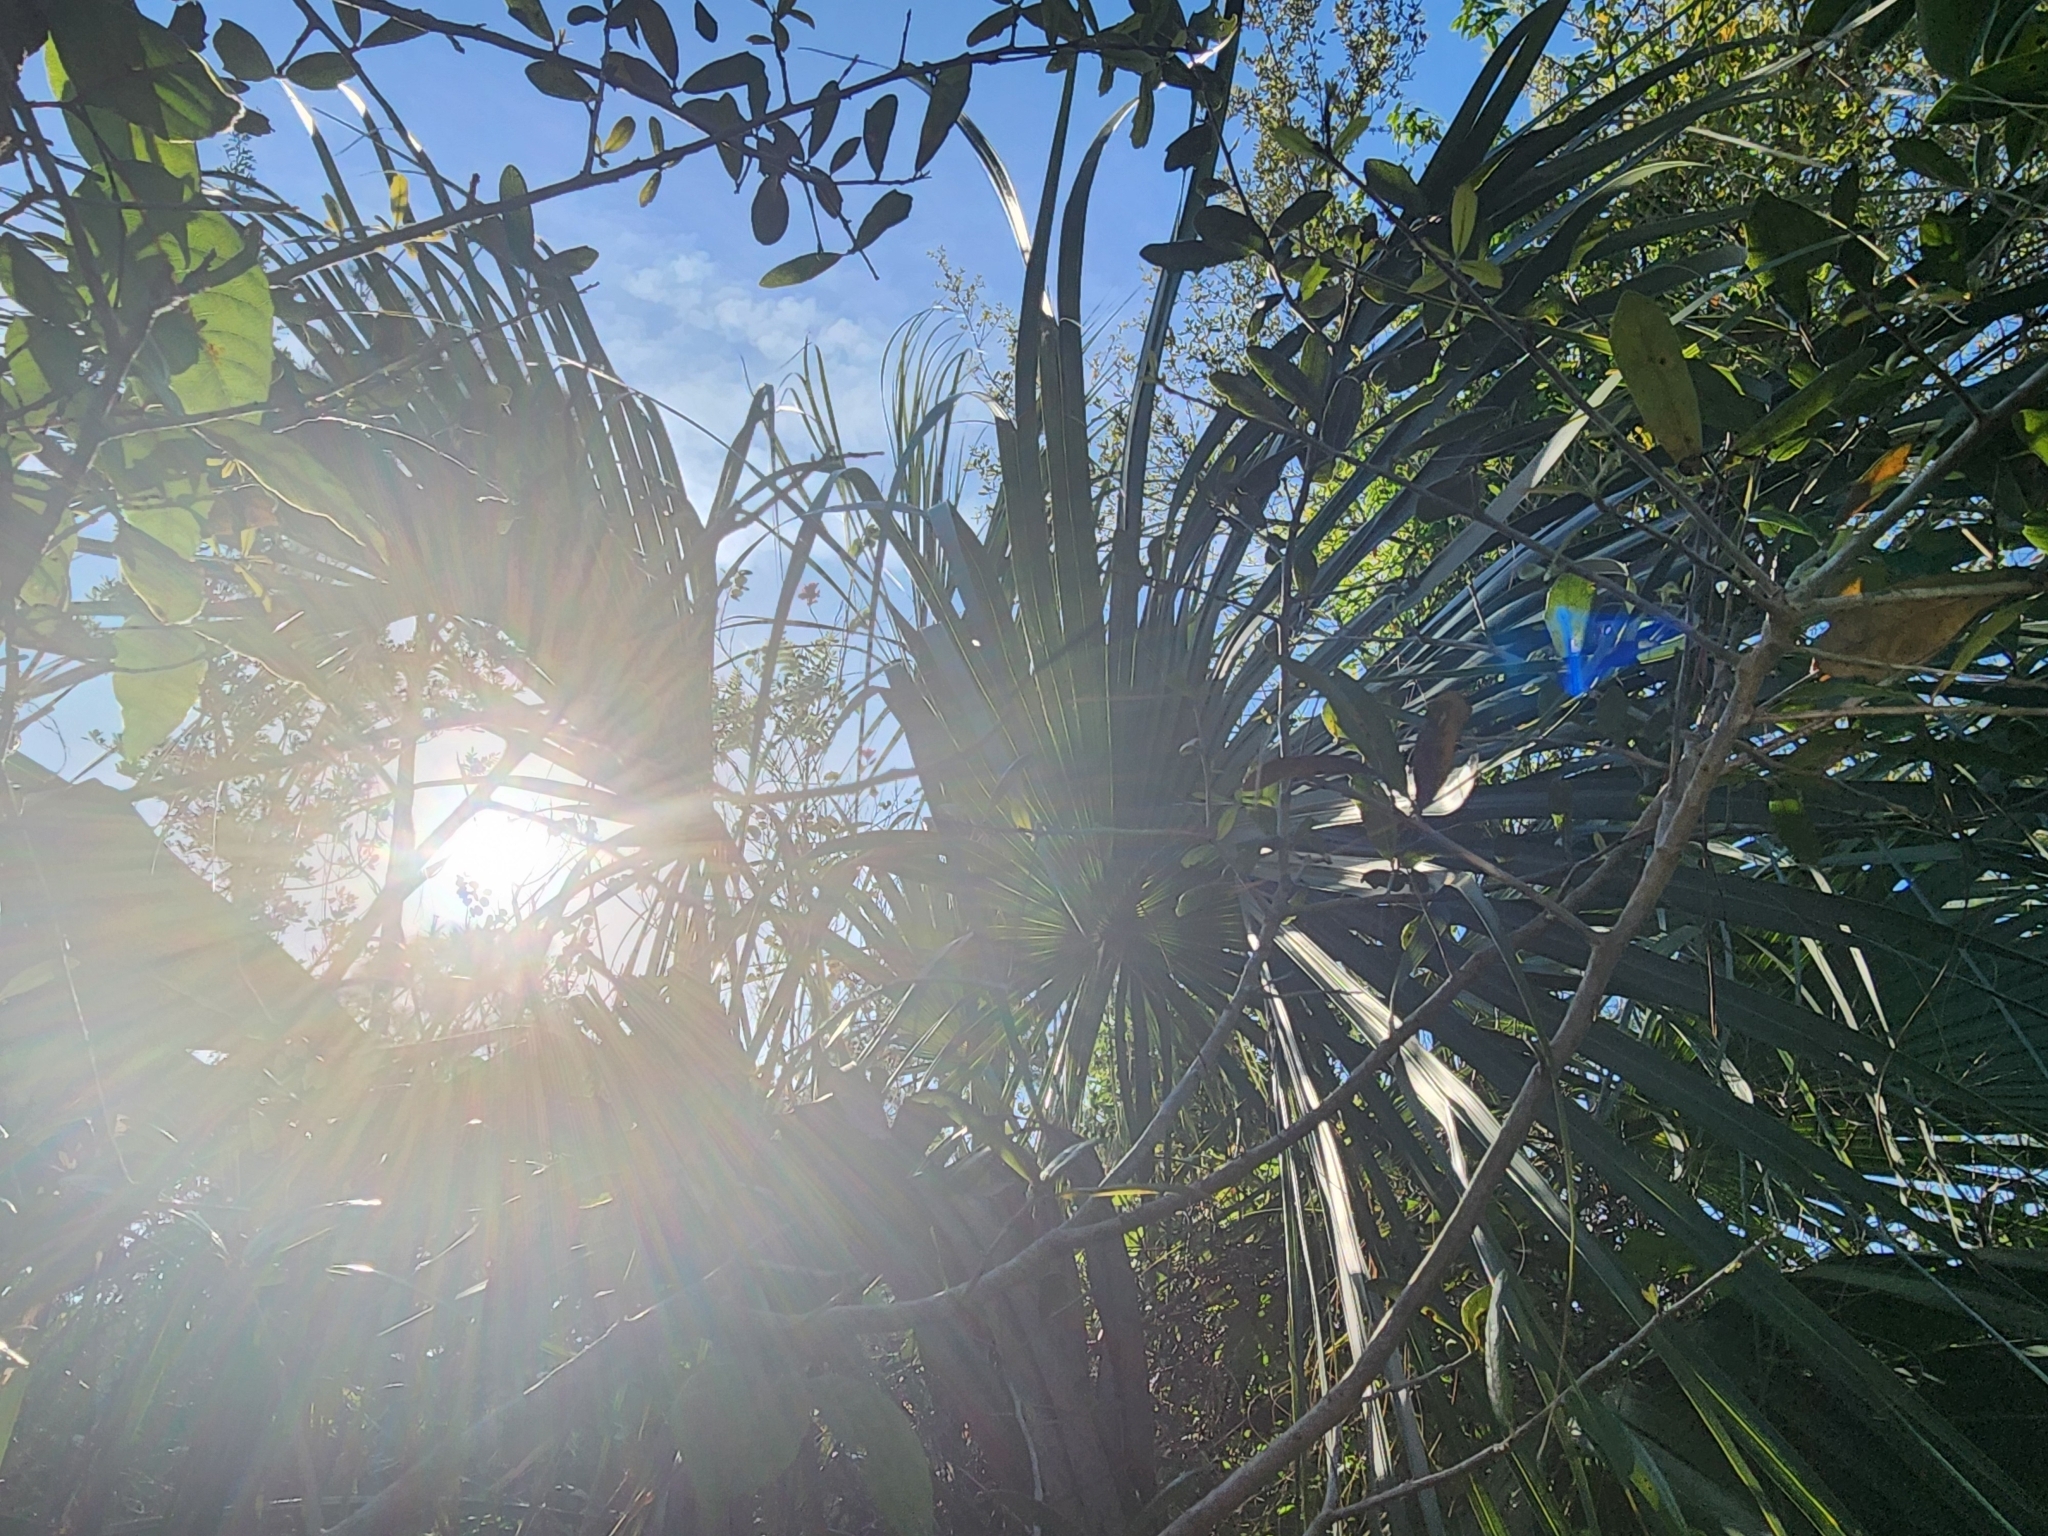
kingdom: Plantae
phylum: Tracheophyta
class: Liliopsida
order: Arecales
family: Arecaceae
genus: Sabal
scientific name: Sabal palmetto
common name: Blue palmetto
